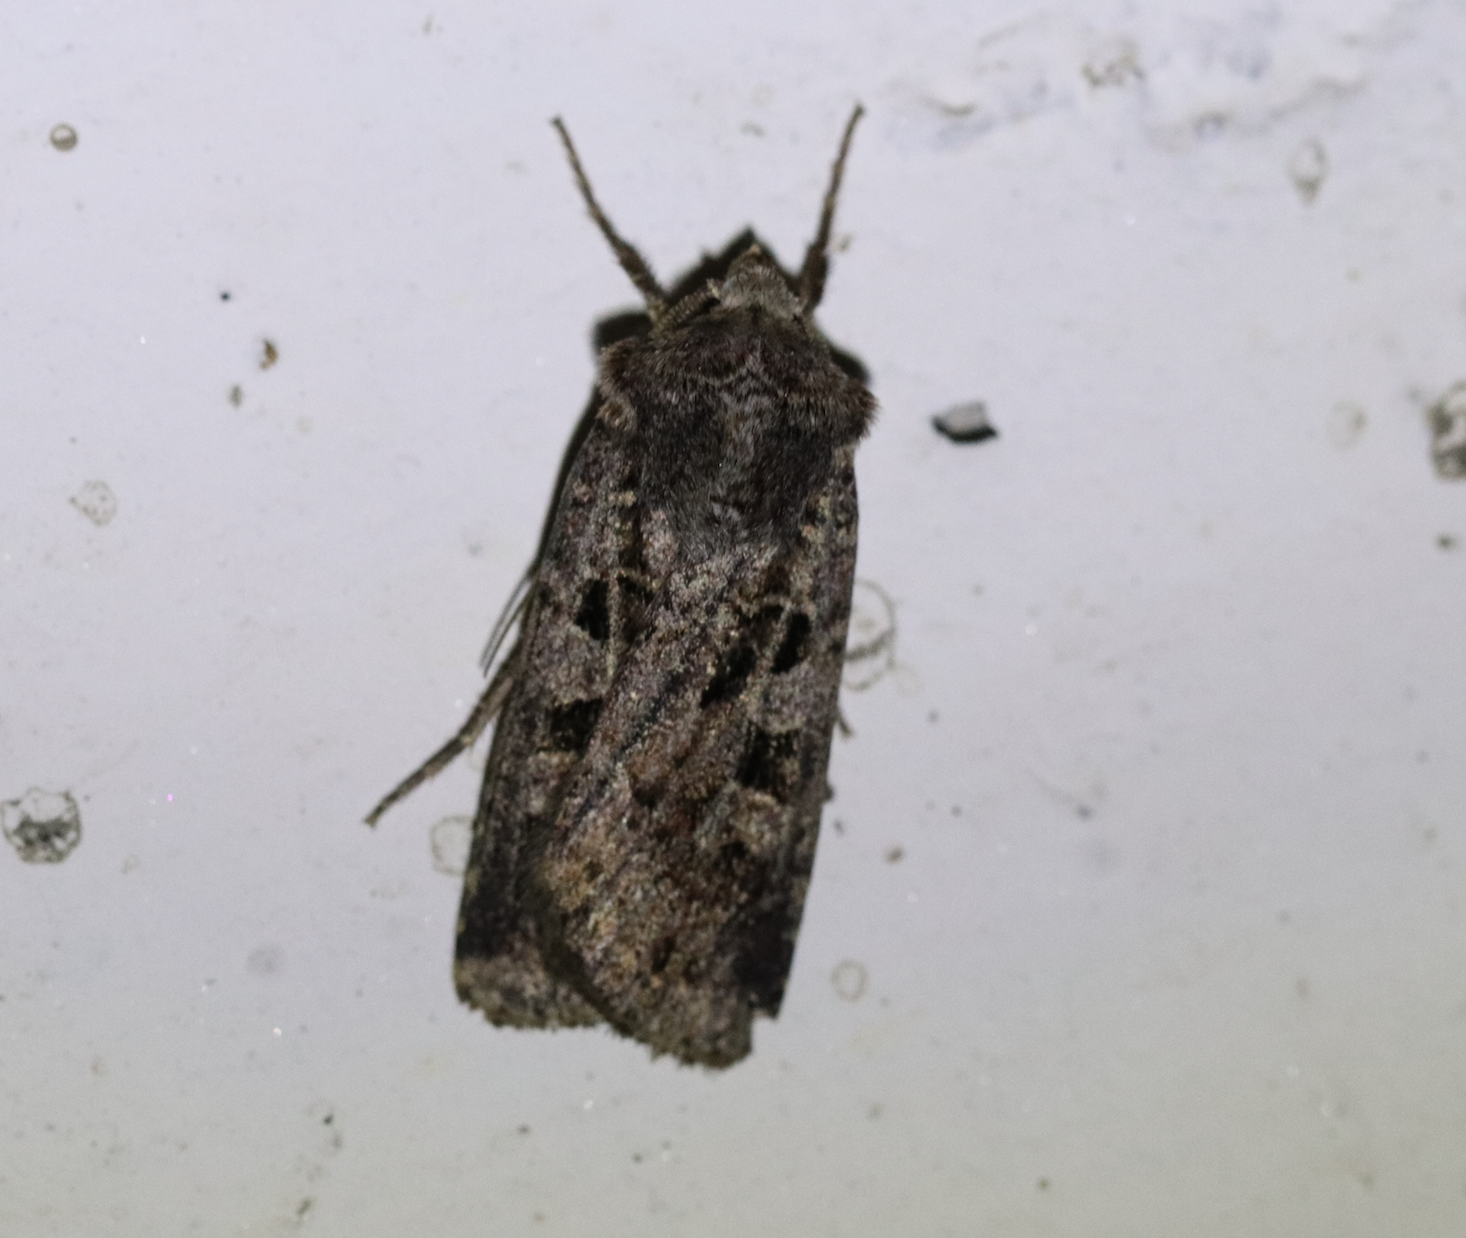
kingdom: Animalia
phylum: Arthropoda
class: Insecta
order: Lepidoptera
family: Noctuidae
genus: Euxoa
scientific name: Euxoa recussa
